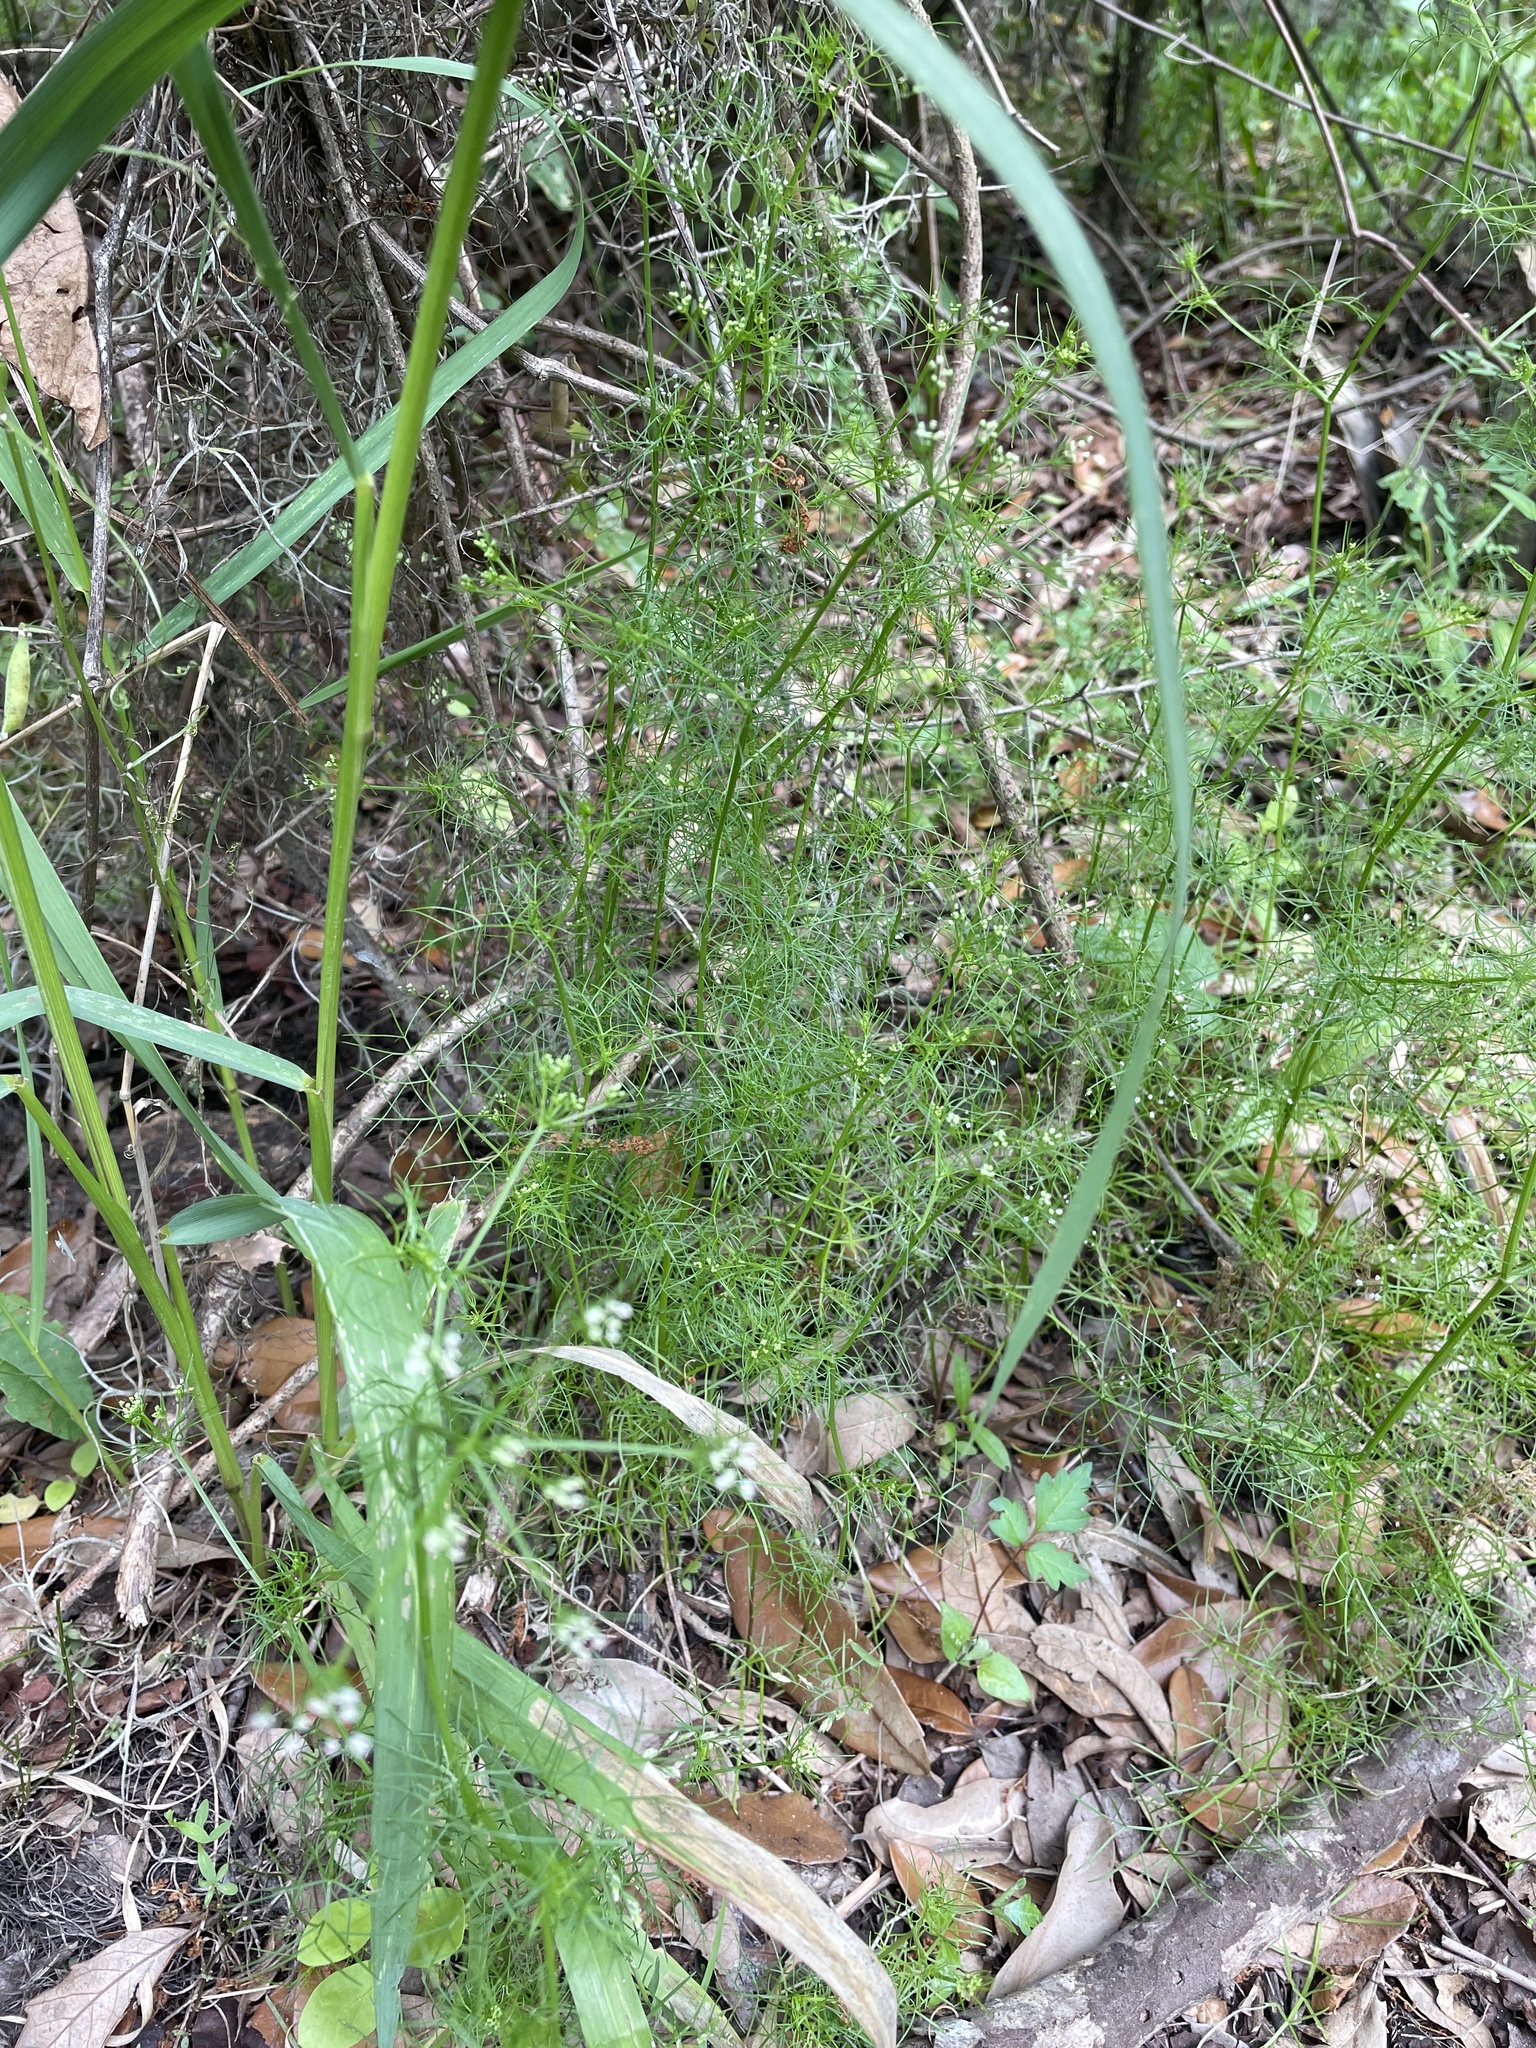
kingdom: Plantae
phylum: Tracheophyta
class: Magnoliopsida
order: Apiales
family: Apiaceae
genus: Ptilimnium
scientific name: Ptilimnium capillaceum
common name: Herbwilliam
